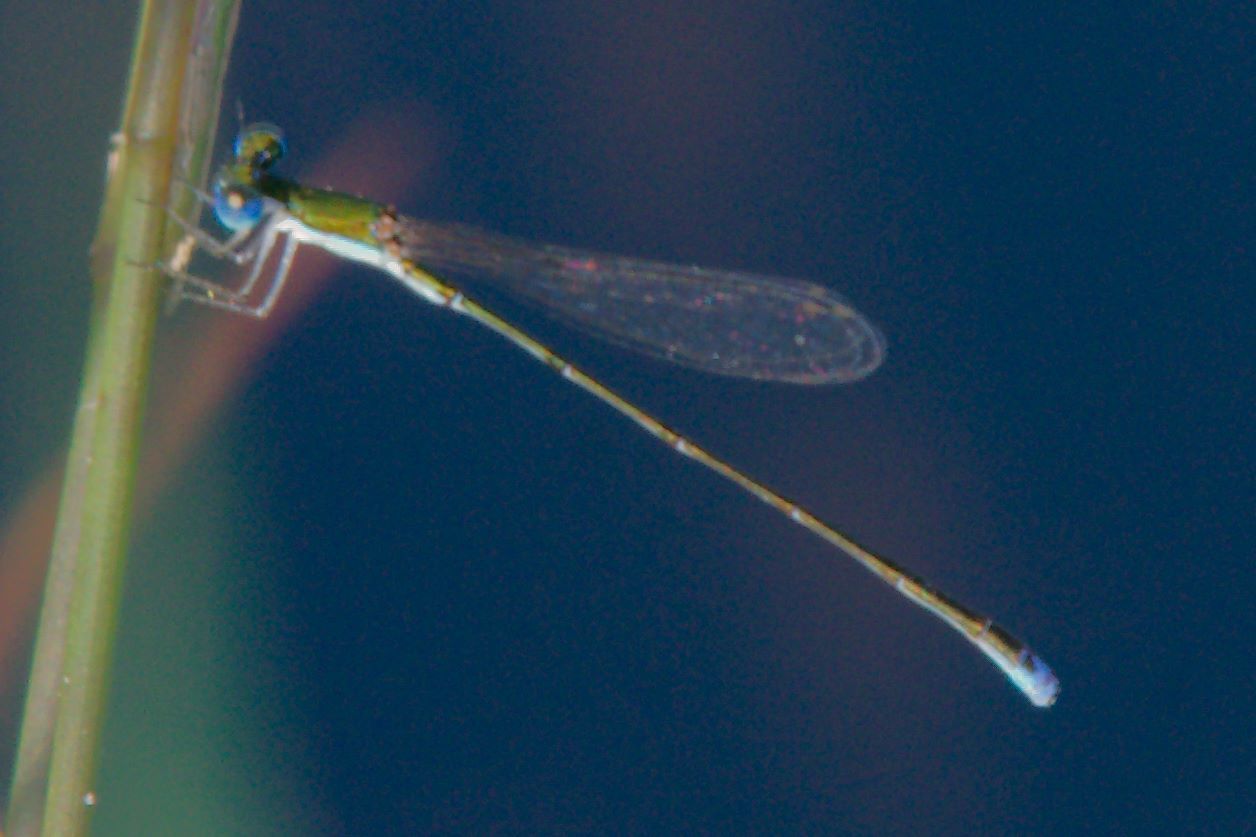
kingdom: Animalia
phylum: Arthropoda
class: Insecta
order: Odonata
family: Coenagrionidae
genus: Nehalennia
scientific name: Nehalennia integricollis
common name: Southern sprite
